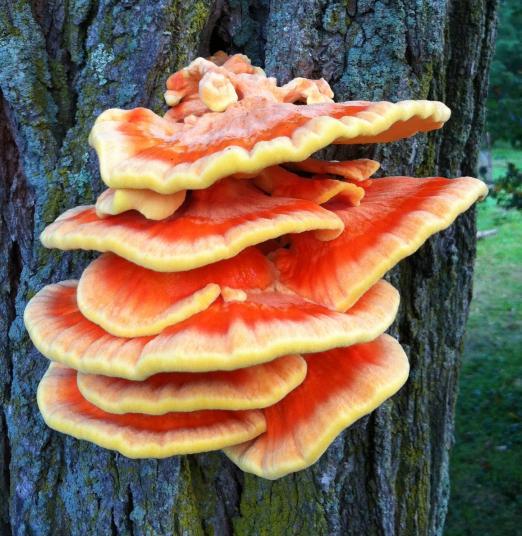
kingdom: Fungi
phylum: Basidiomycota
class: Agaricomycetes
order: Polyporales
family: Laetiporaceae
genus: Laetiporus
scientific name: Laetiporus sulphureus
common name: Chicken of the woods
